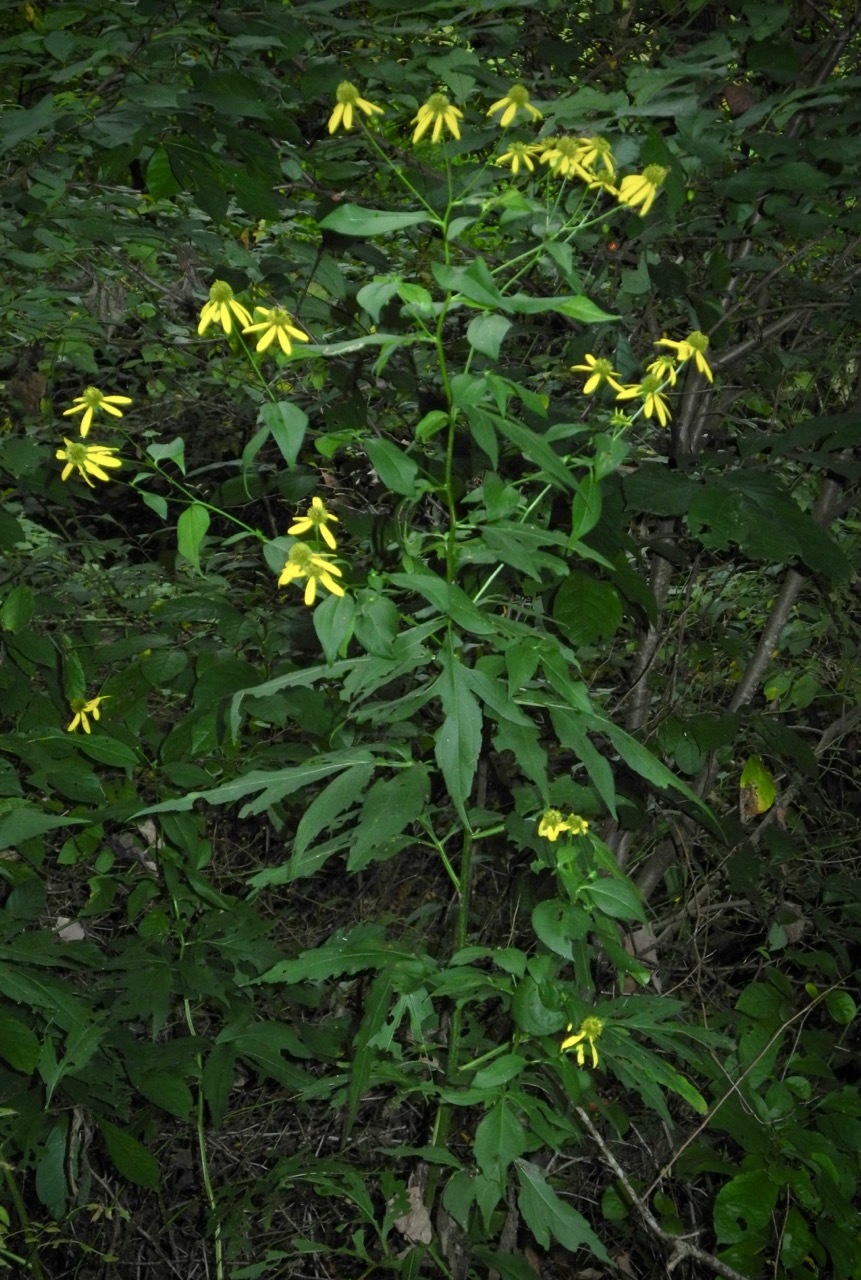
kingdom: Plantae
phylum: Tracheophyta
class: Magnoliopsida
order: Asterales
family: Asteraceae
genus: Rudbeckia
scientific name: Rudbeckia laciniata
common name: Coneflower
